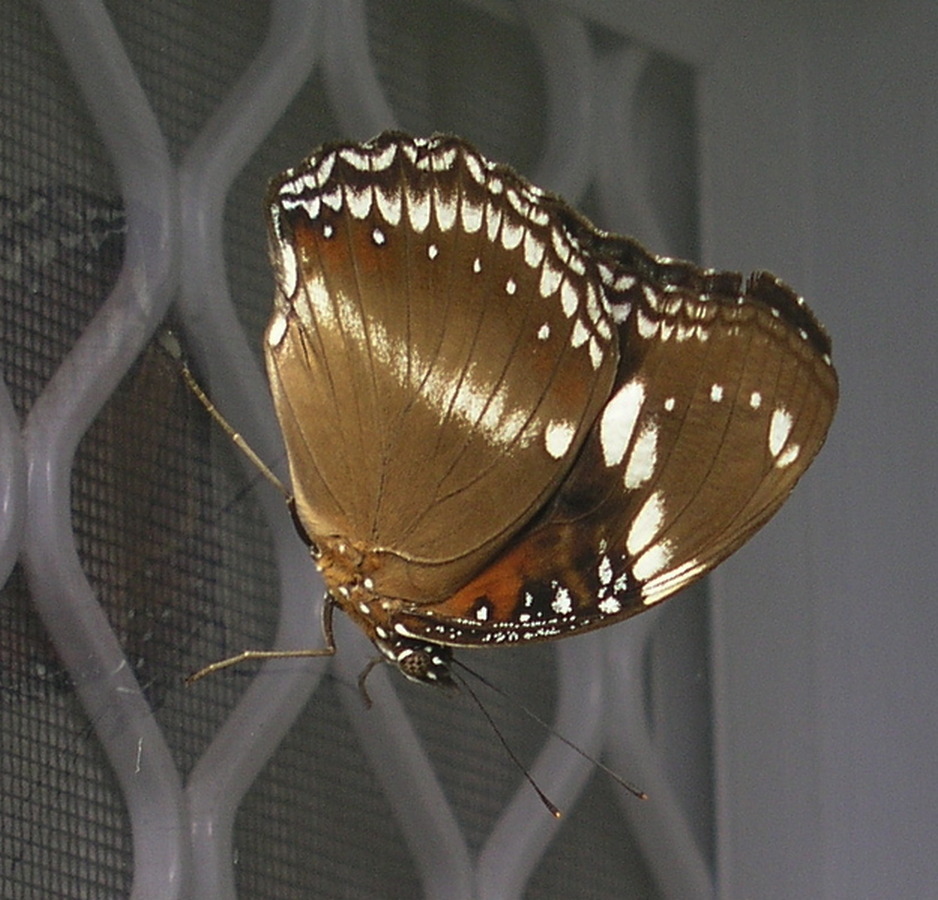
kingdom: Animalia
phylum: Arthropoda
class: Insecta
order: Lepidoptera
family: Nymphalidae
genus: Hypolimnas
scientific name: Hypolimnas bolina
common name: Great eggfly
